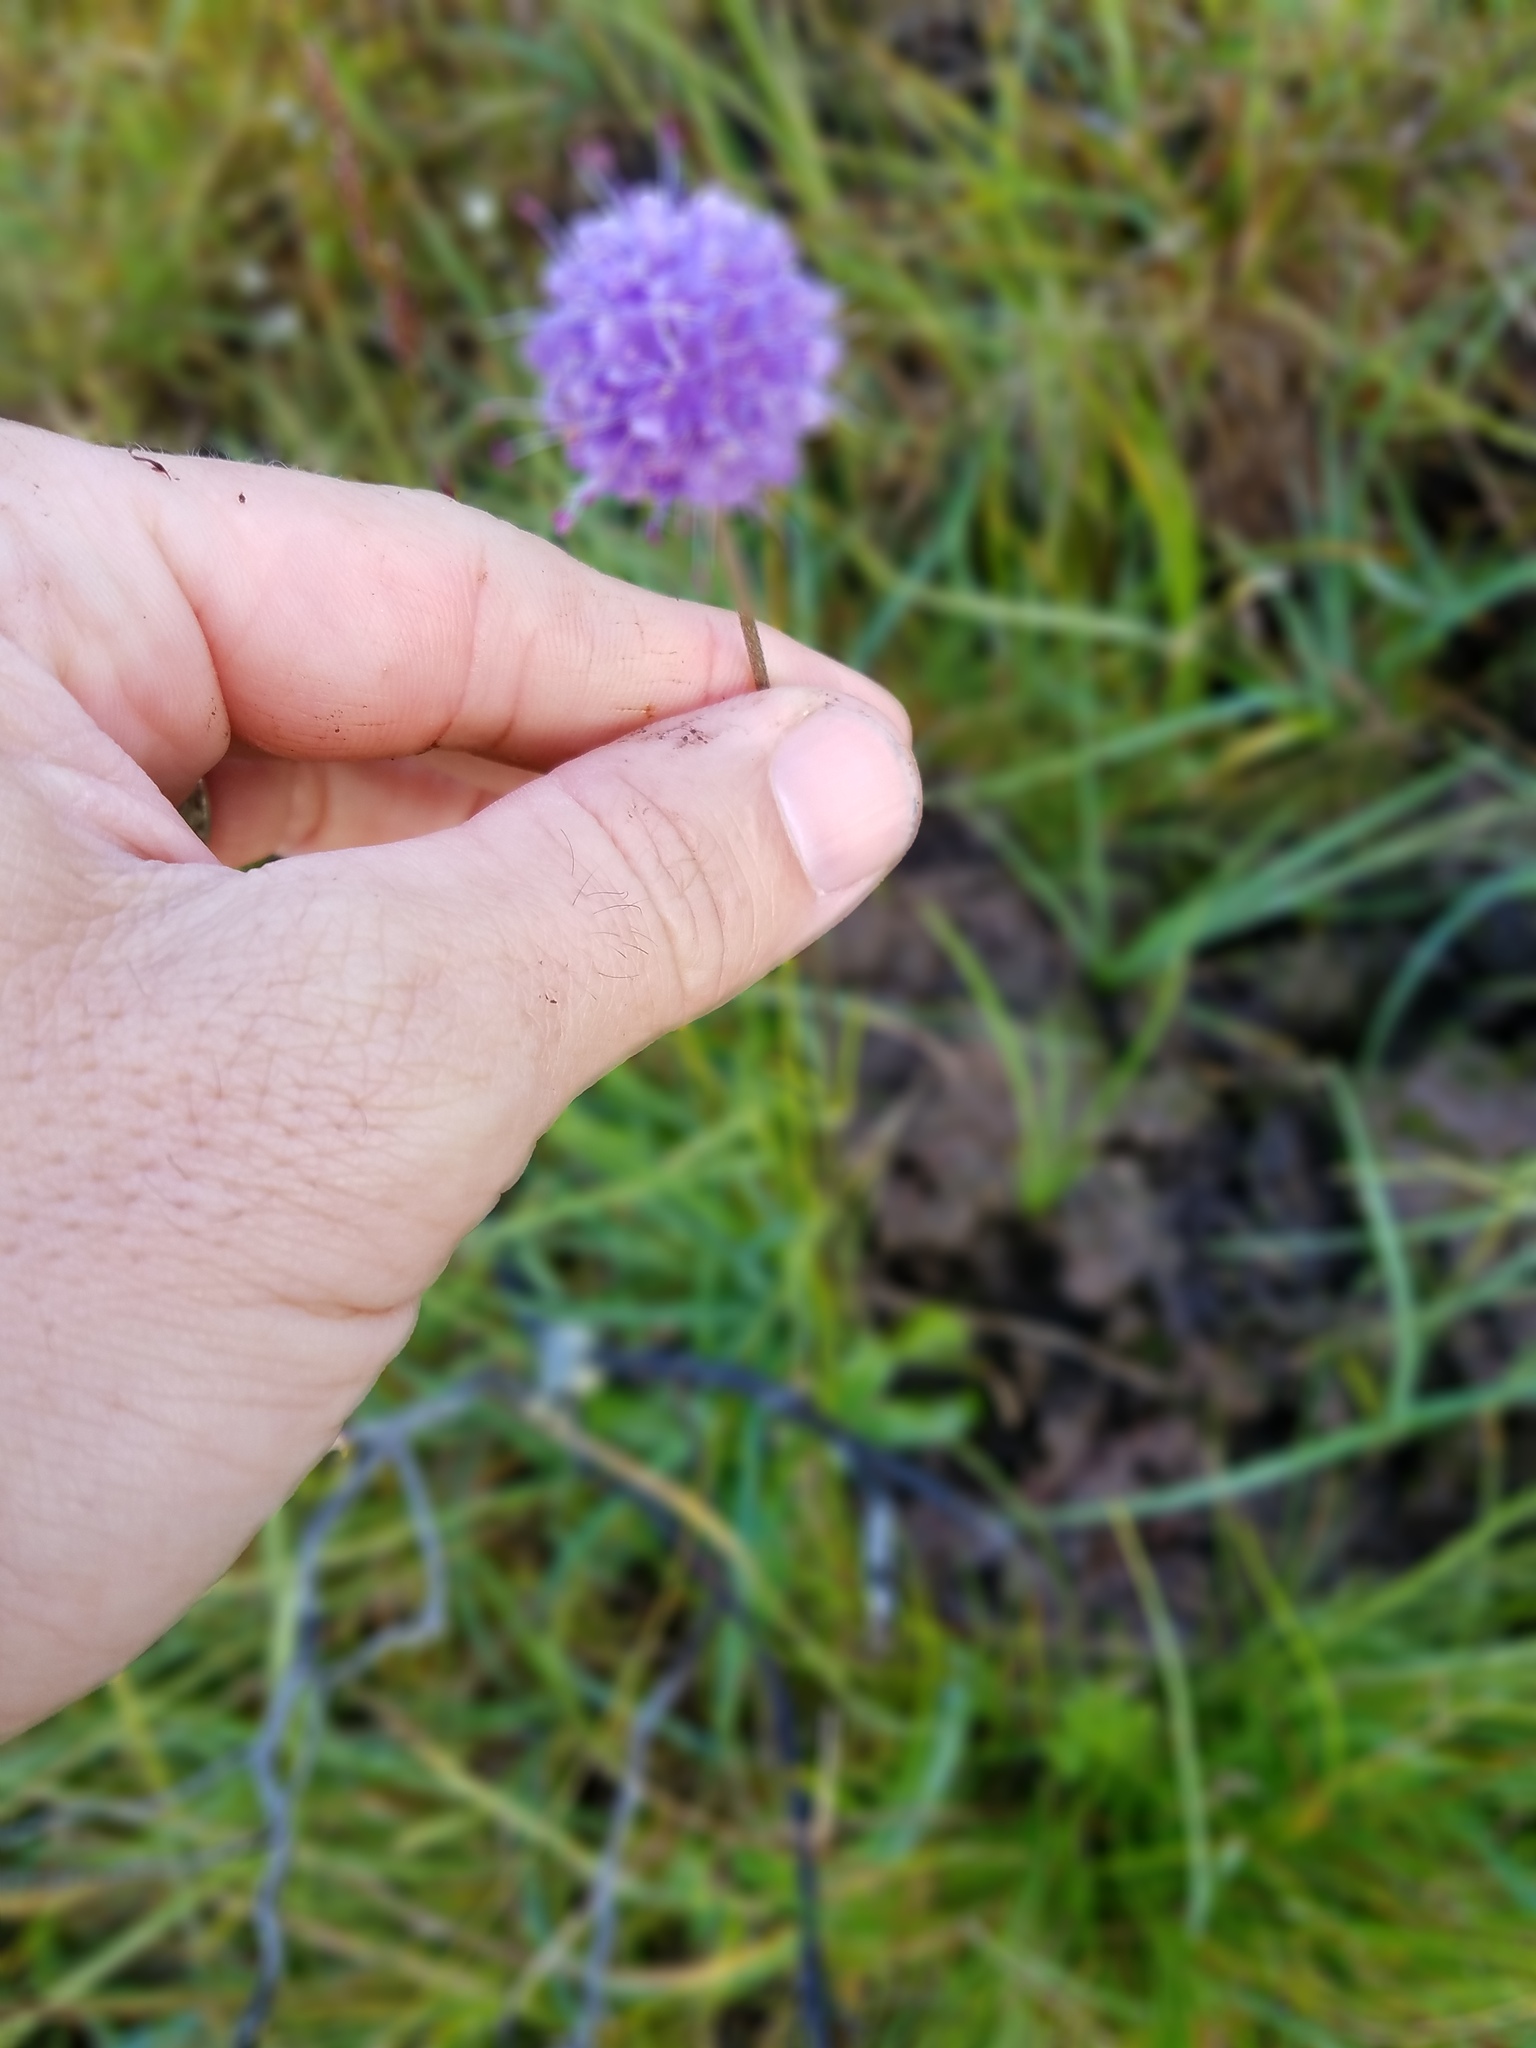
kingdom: Plantae
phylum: Tracheophyta
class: Magnoliopsida
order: Dipsacales
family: Caprifoliaceae
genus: Succisa
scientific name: Succisa pratensis
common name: Devil's-bit
